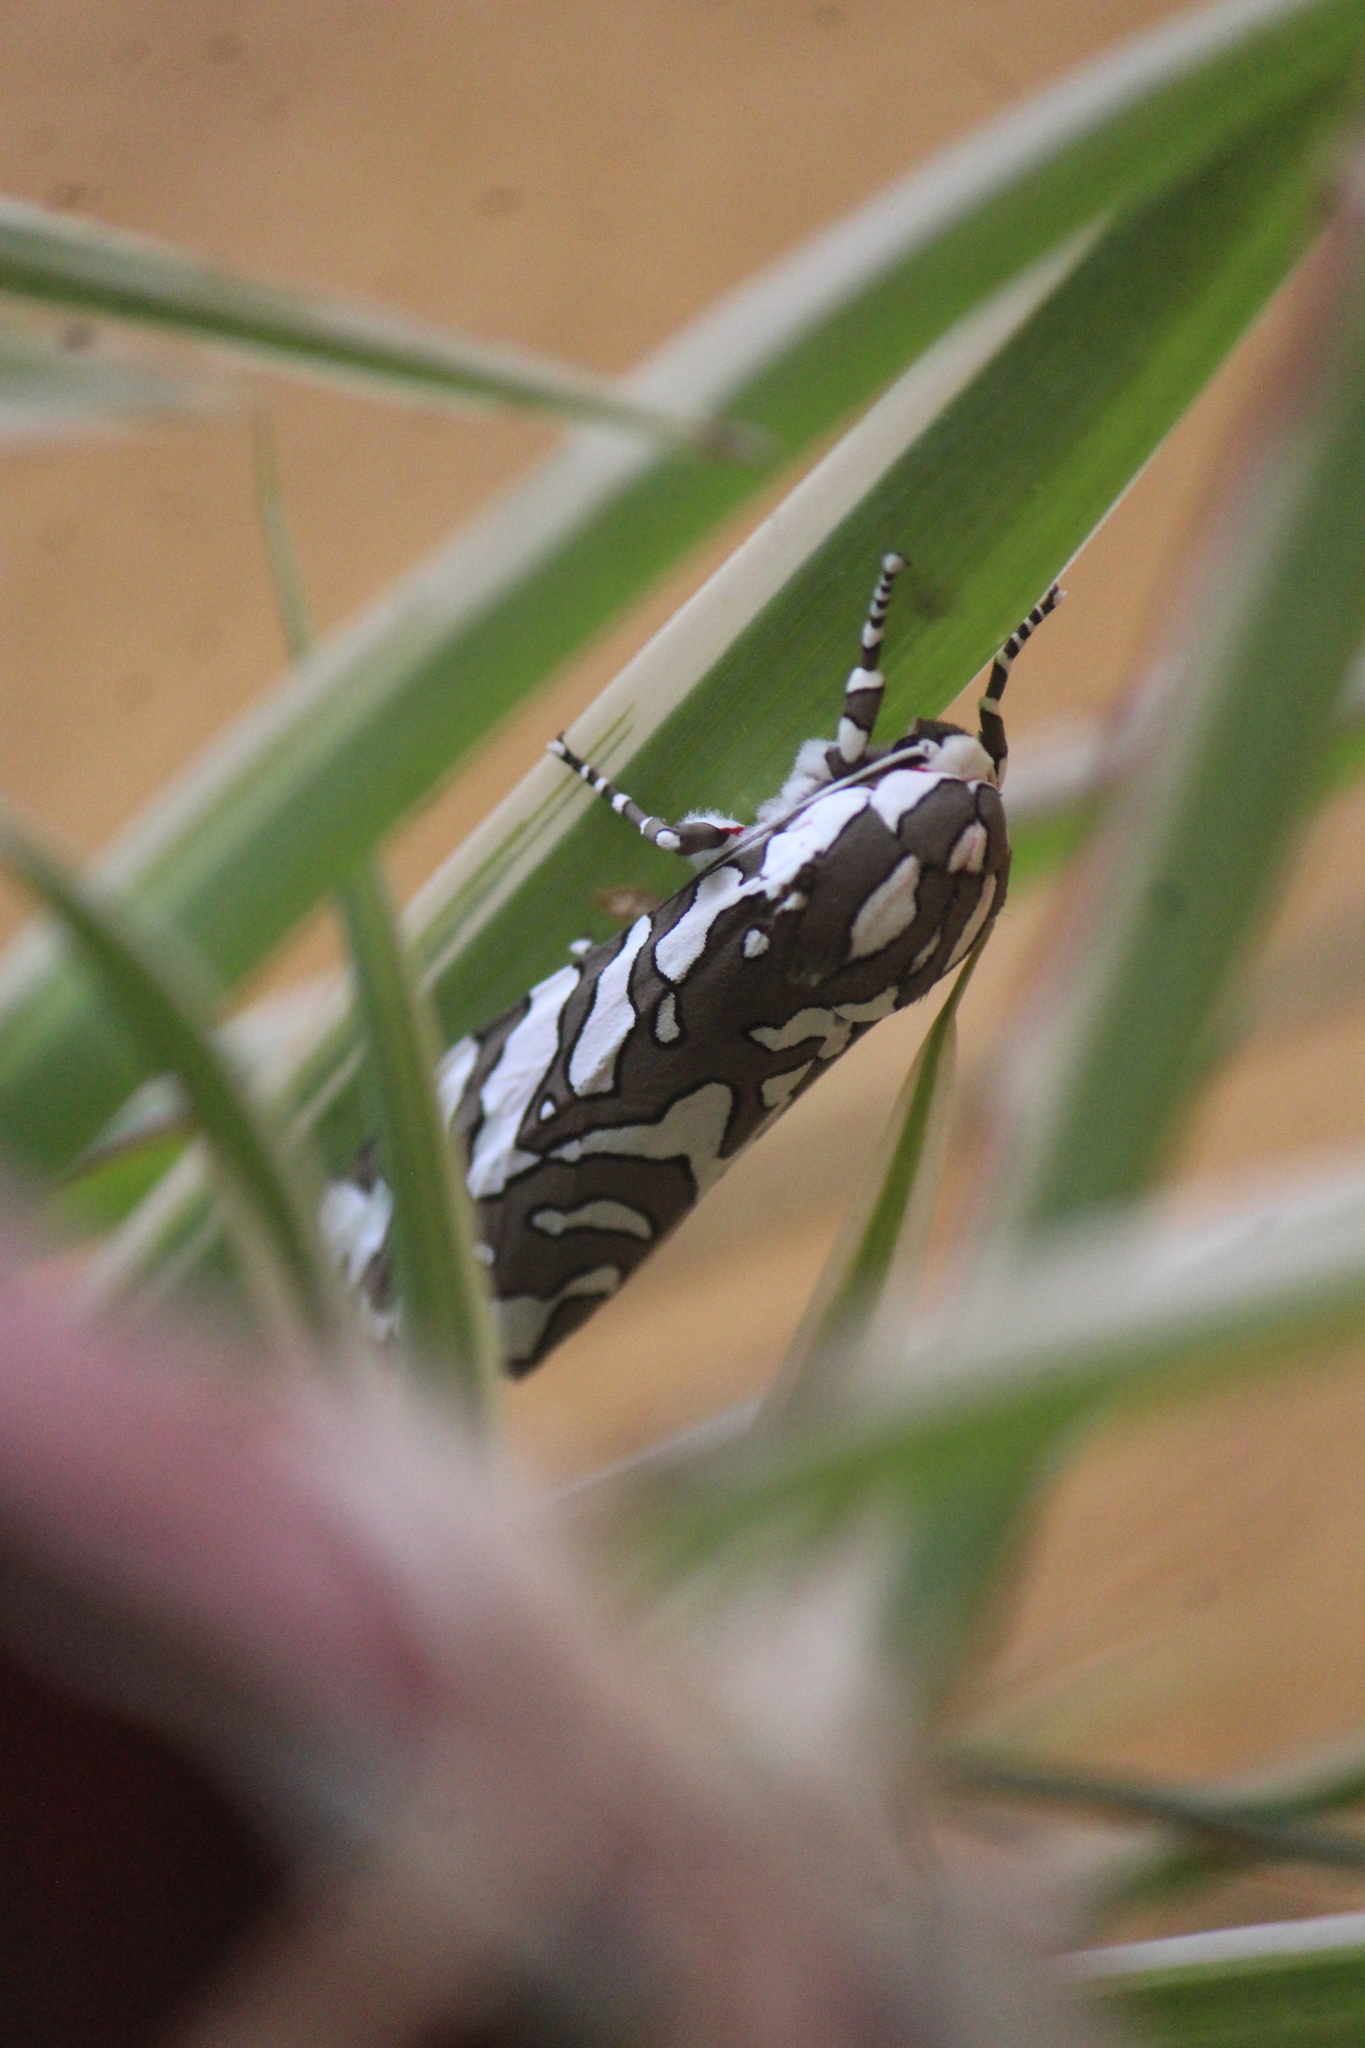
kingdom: Animalia
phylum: Arthropoda
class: Insecta
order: Lepidoptera
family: Erebidae
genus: Arachnis
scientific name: Arachnis dilecta
